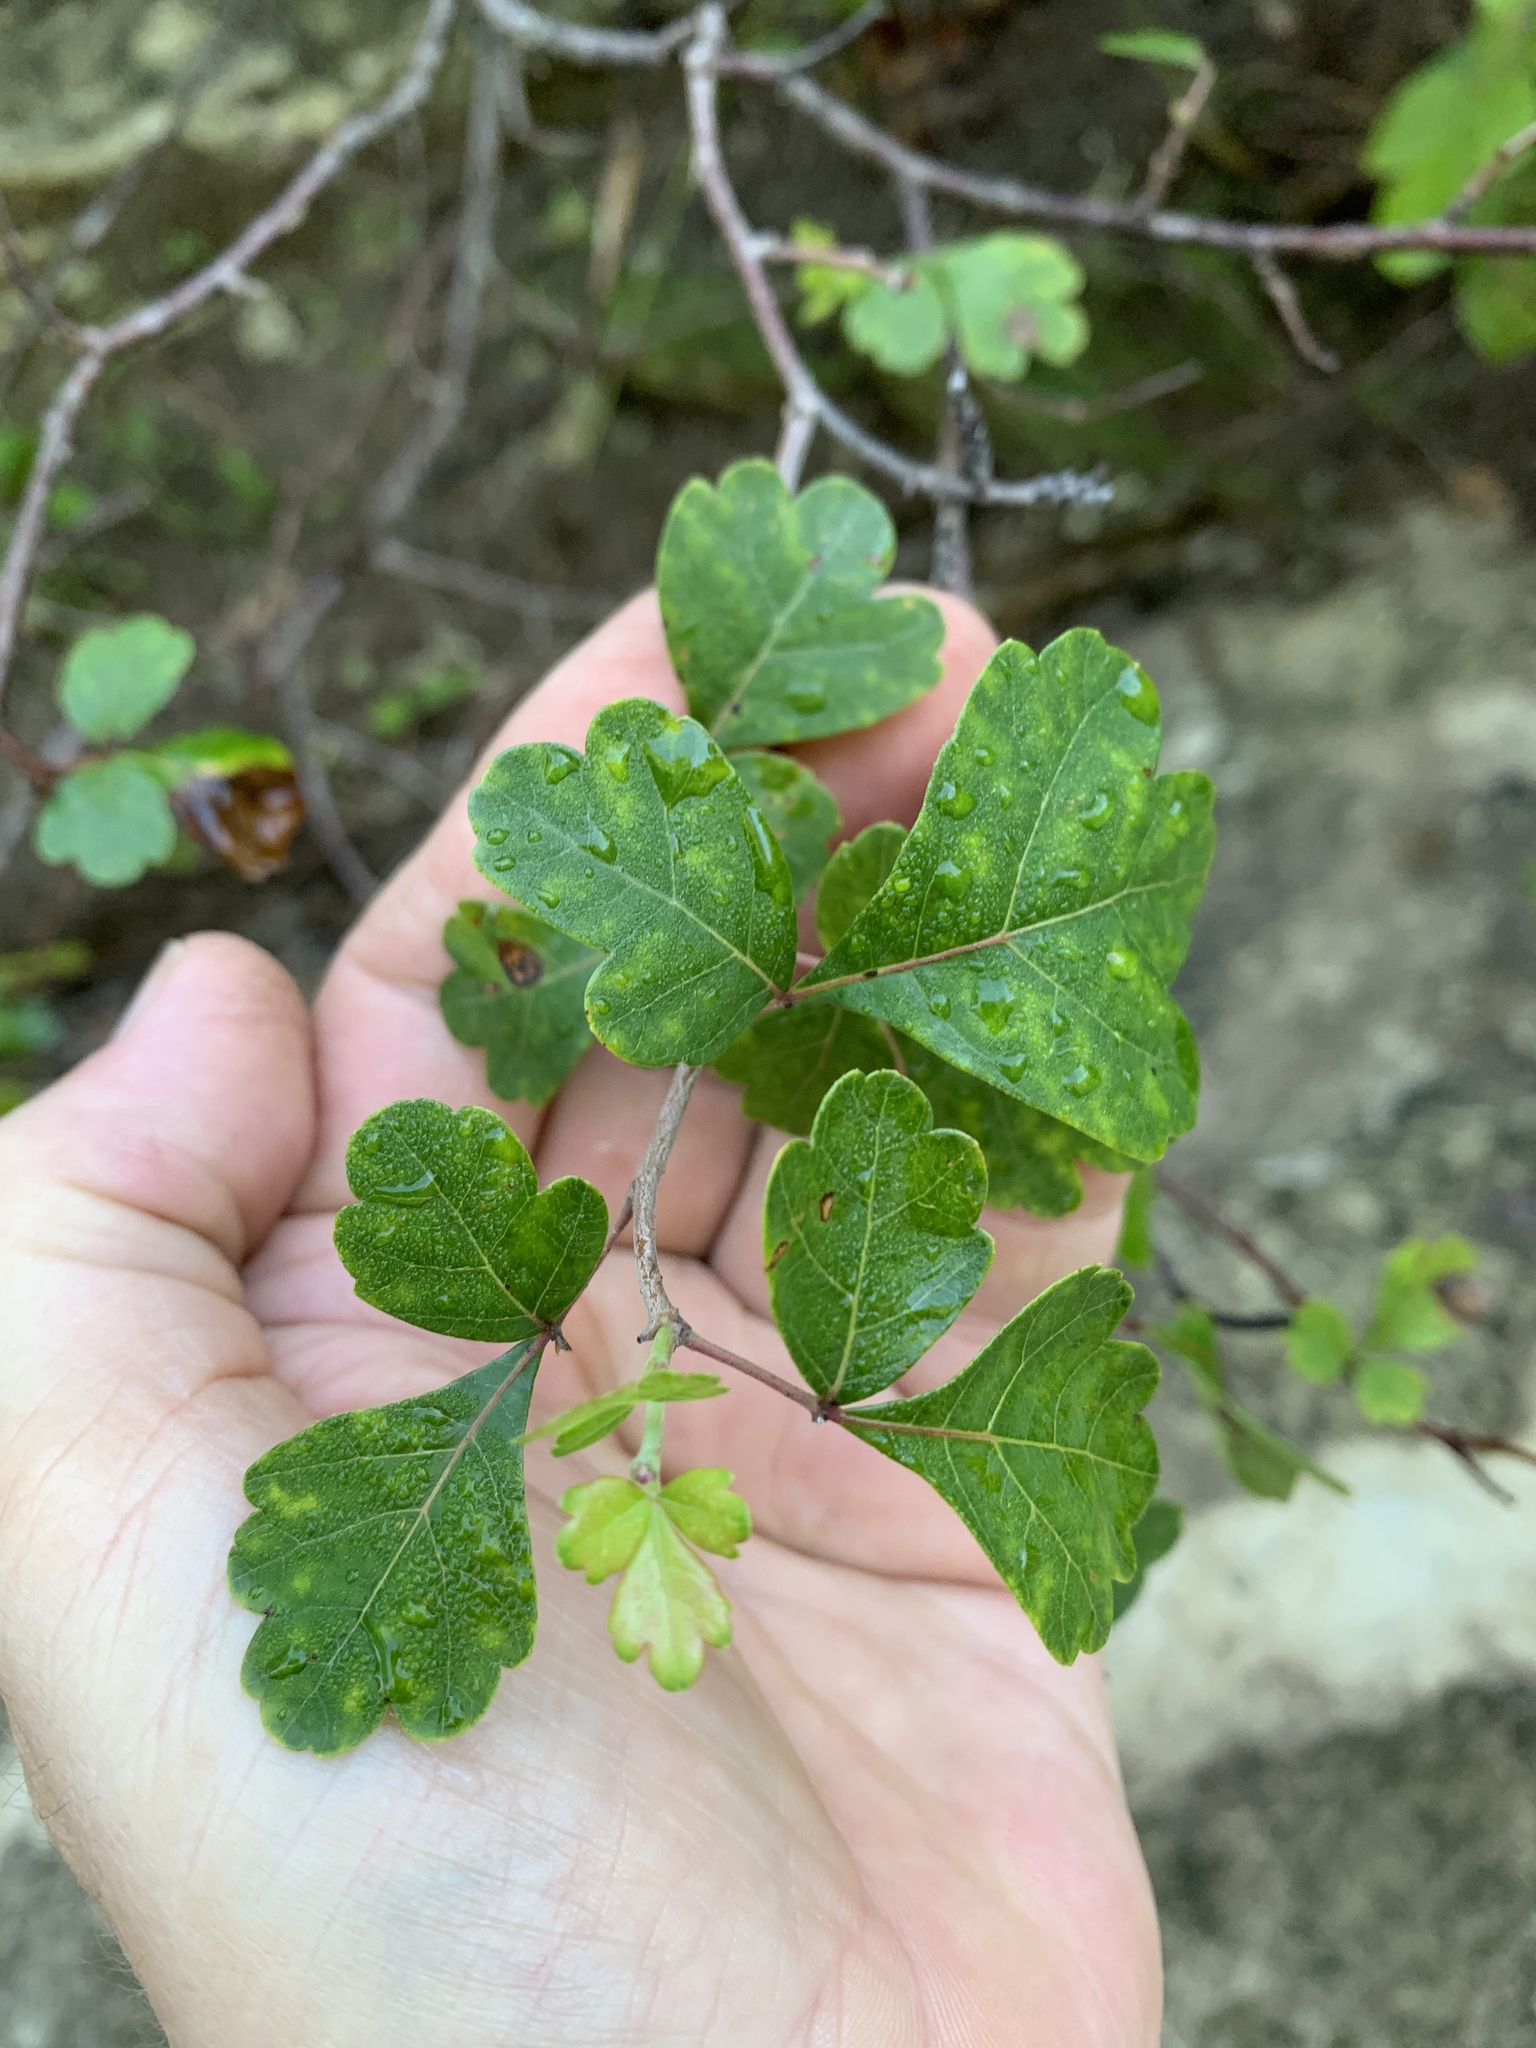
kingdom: Plantae
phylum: Tracheophyta
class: Magnoliopsida
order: Sapindales
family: Anacardiaceae
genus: Rhus
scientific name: Rhus aromatica
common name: Aromatic sumac
